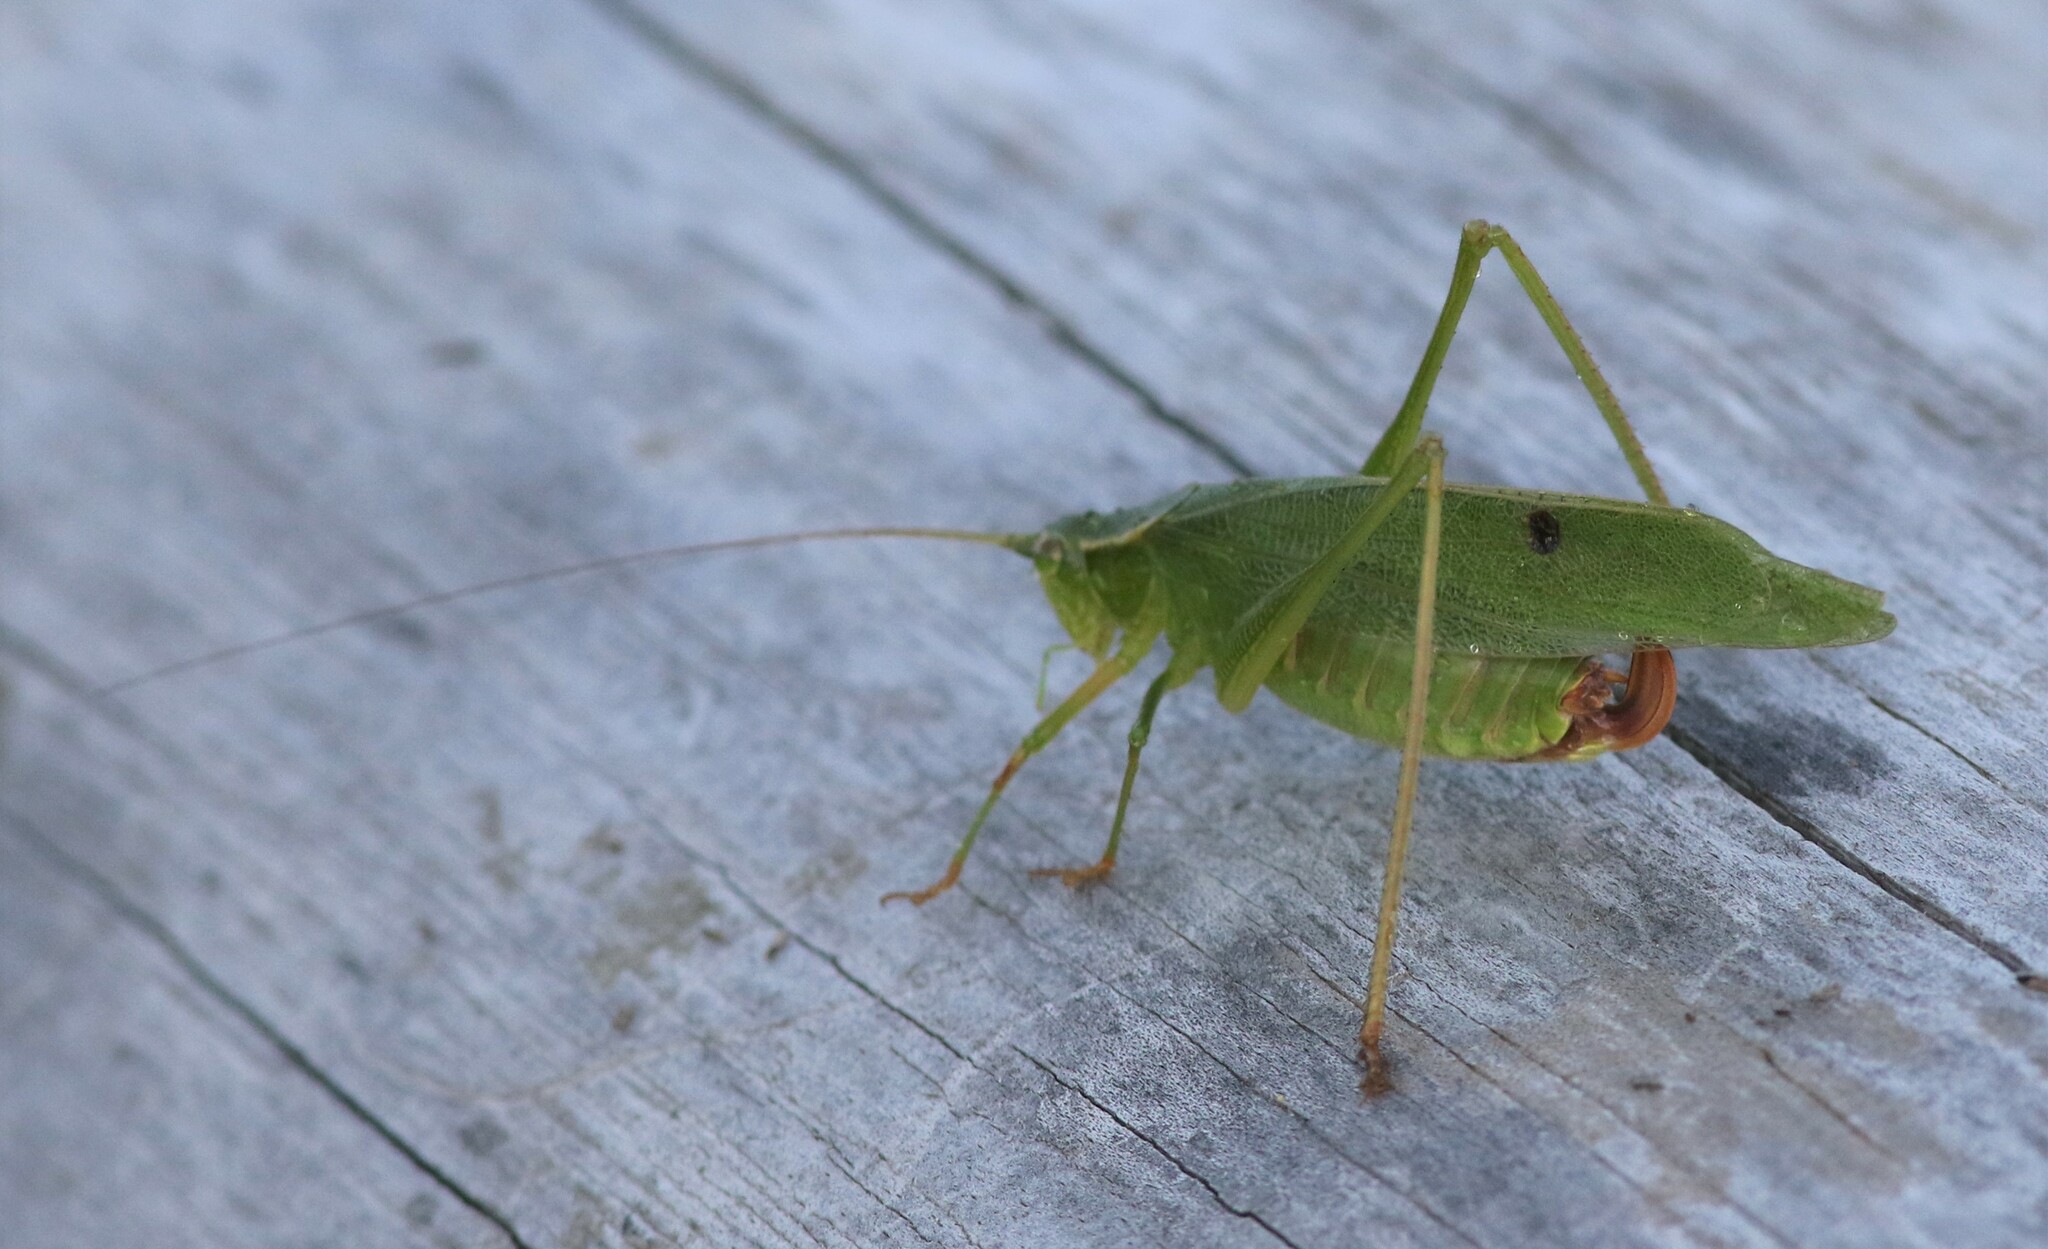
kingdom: Animalia
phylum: Arthropoda
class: Insecta
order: Orthoptera
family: Tettigoniidae
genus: Scudderia
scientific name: Scudderia furcata
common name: Fork-tailed bush katydid
